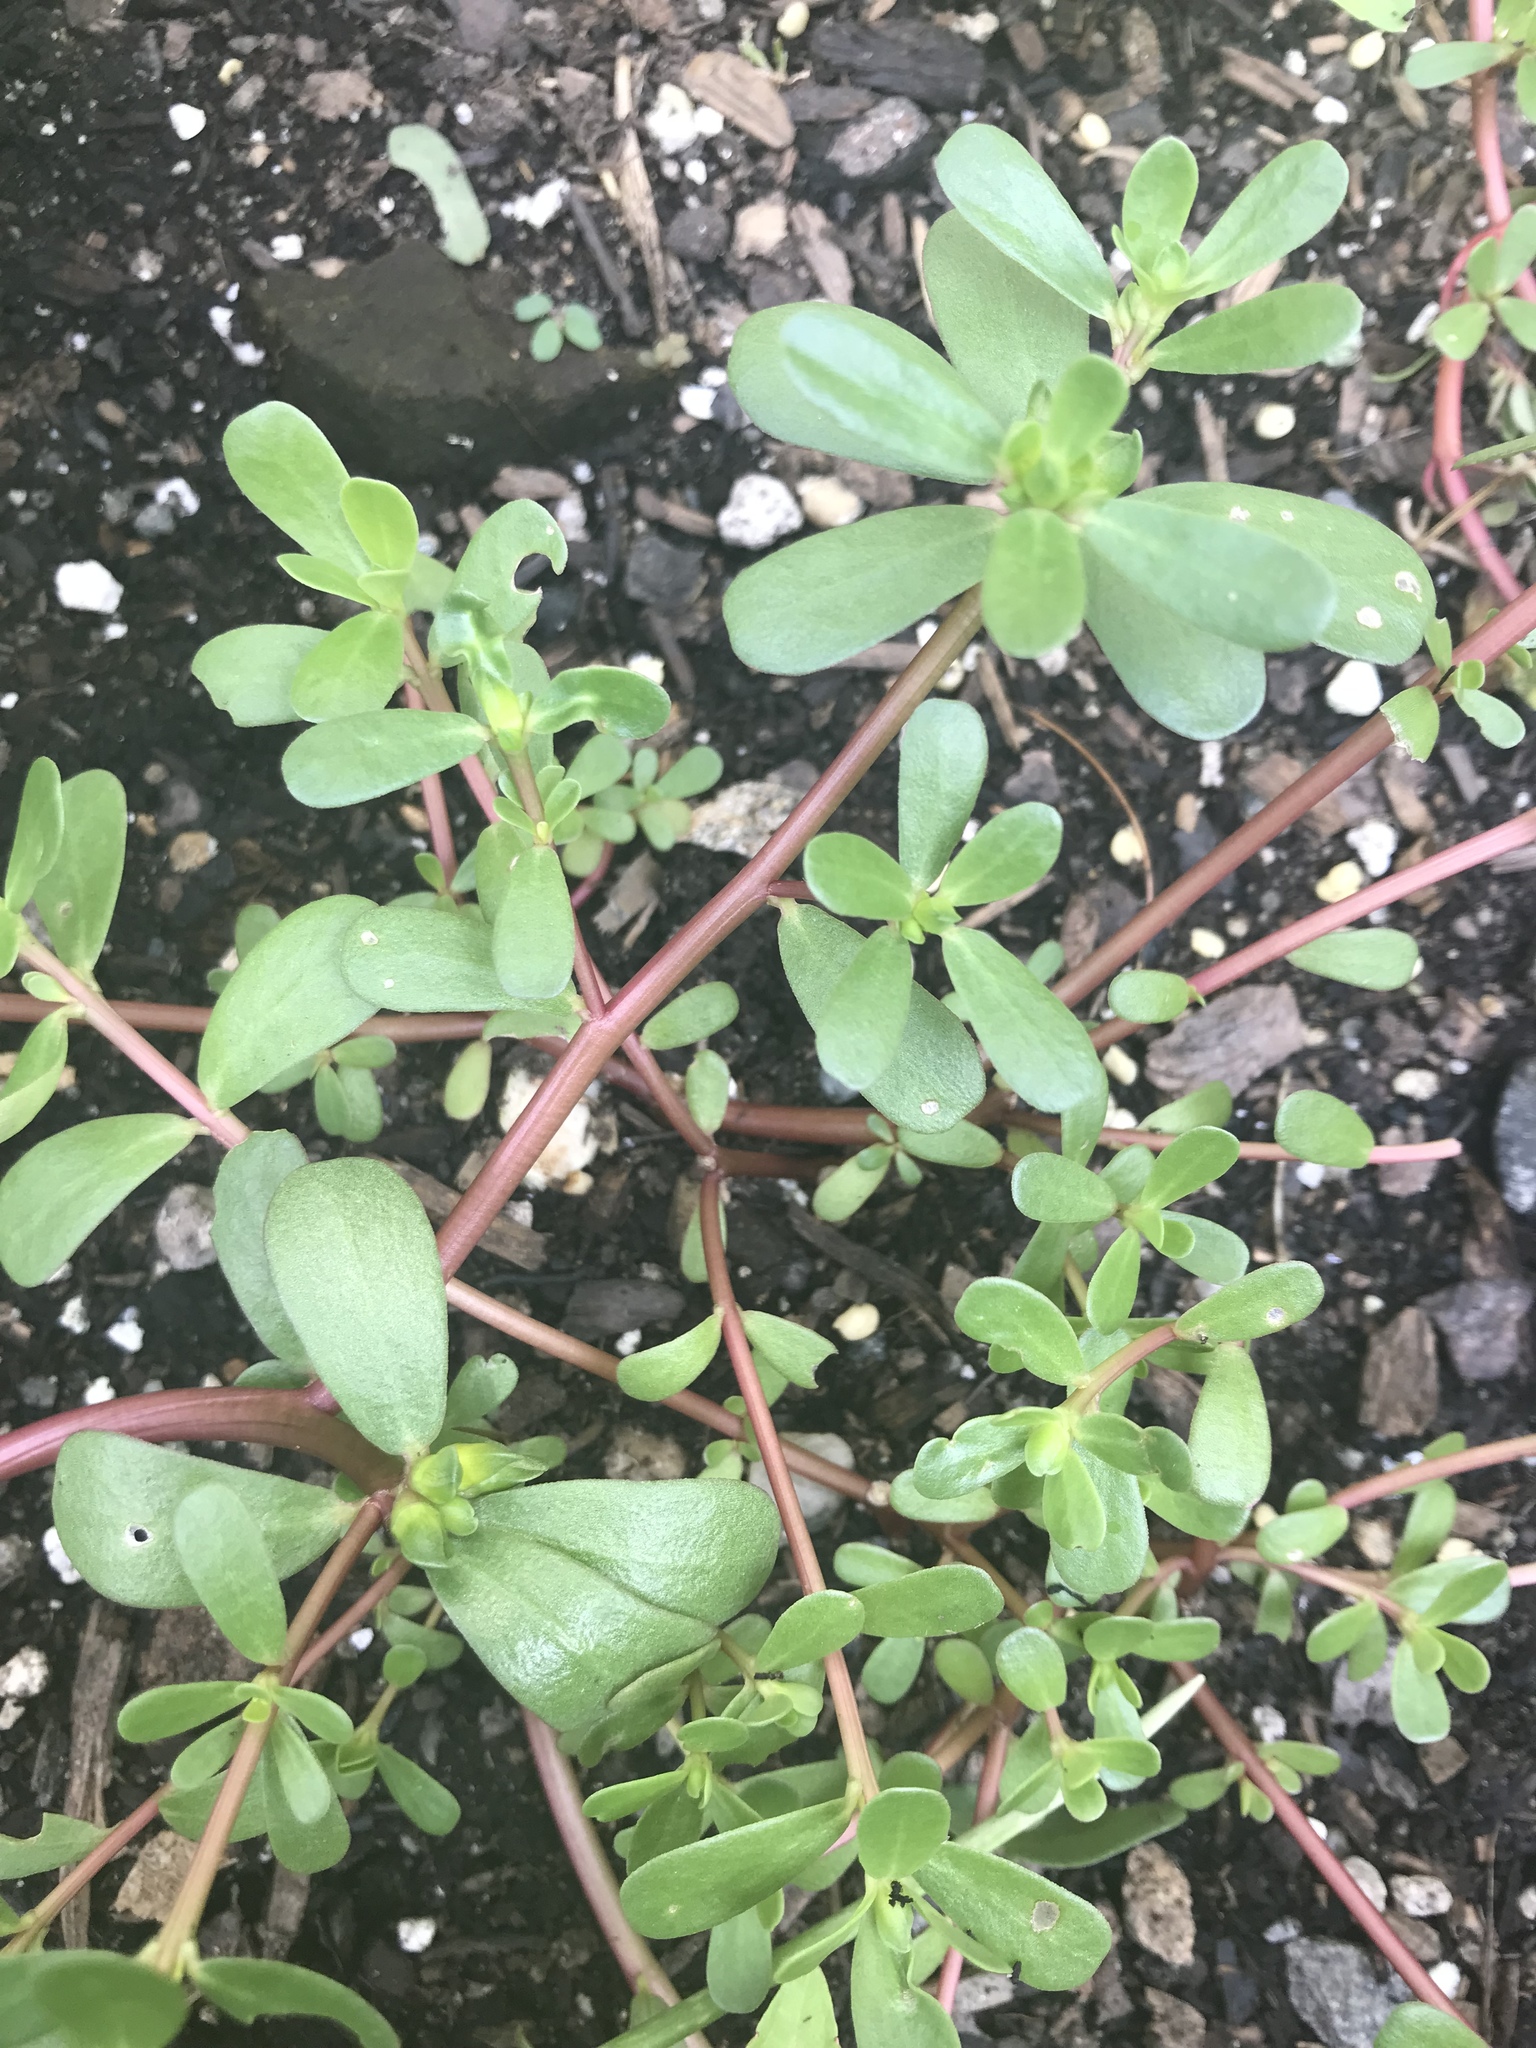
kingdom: Plantae
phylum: Tracheophyta
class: Magnoliopsida
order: Caryophyllales
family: Portulacaceae
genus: Portulaca
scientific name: Portulaca oleracea
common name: Common purslane
